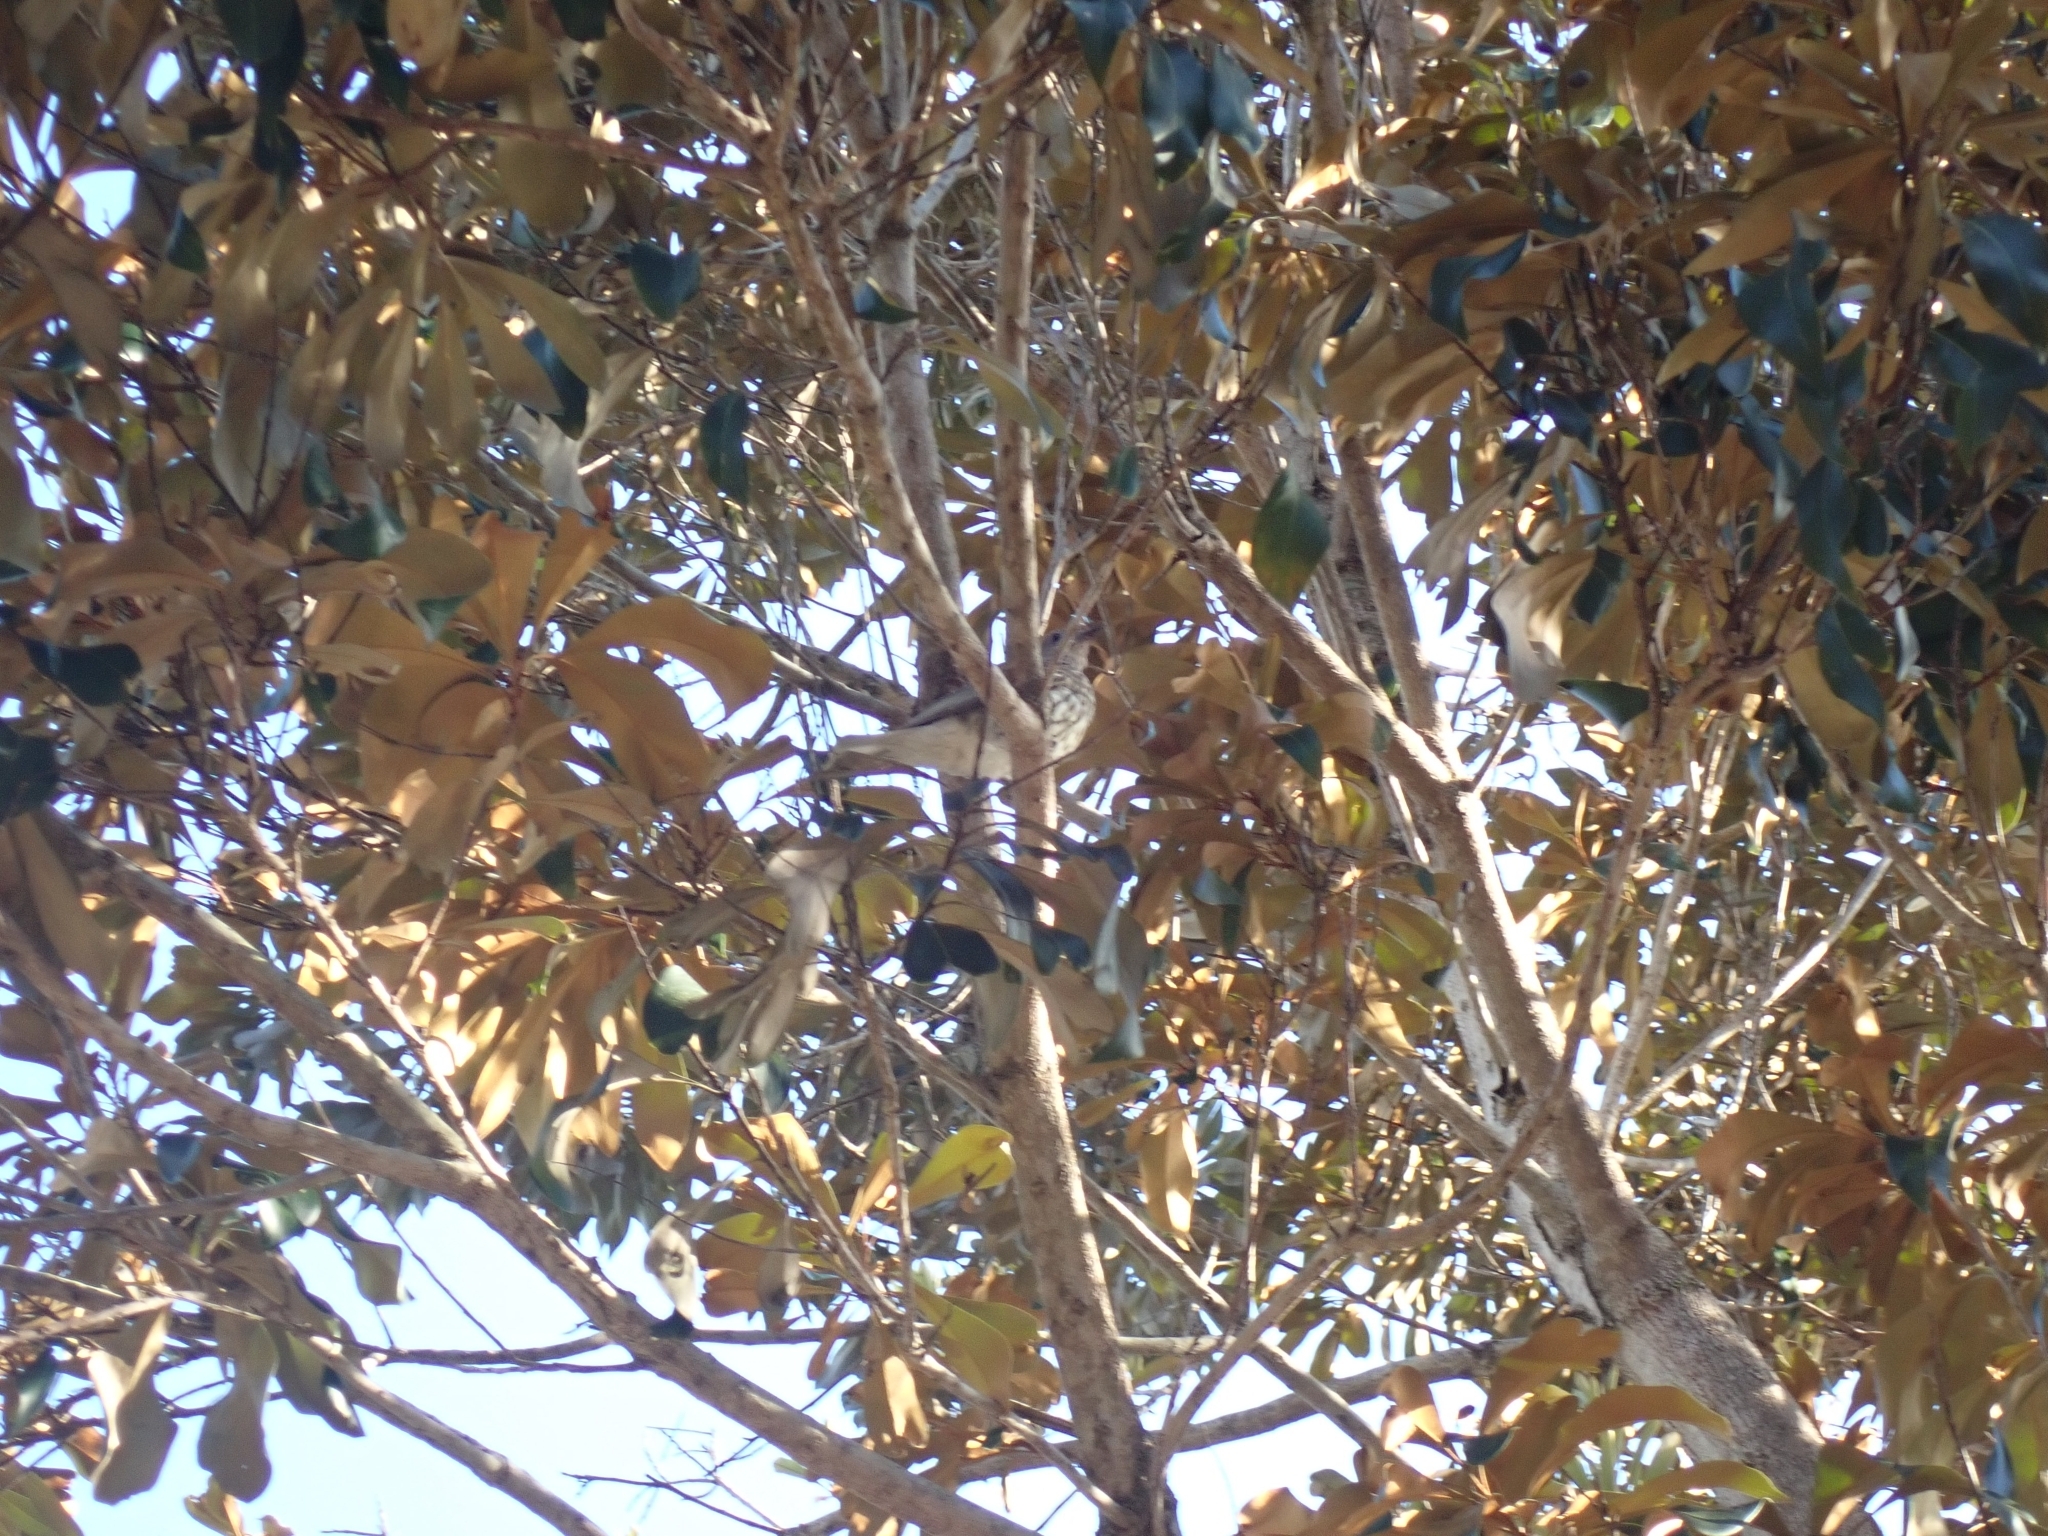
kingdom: Animalia
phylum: Chordata
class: Aves
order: Passeriformes
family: Oriolidae
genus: Sphecotheres
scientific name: Sphecotheres vieilloti
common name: Australasian figbird
